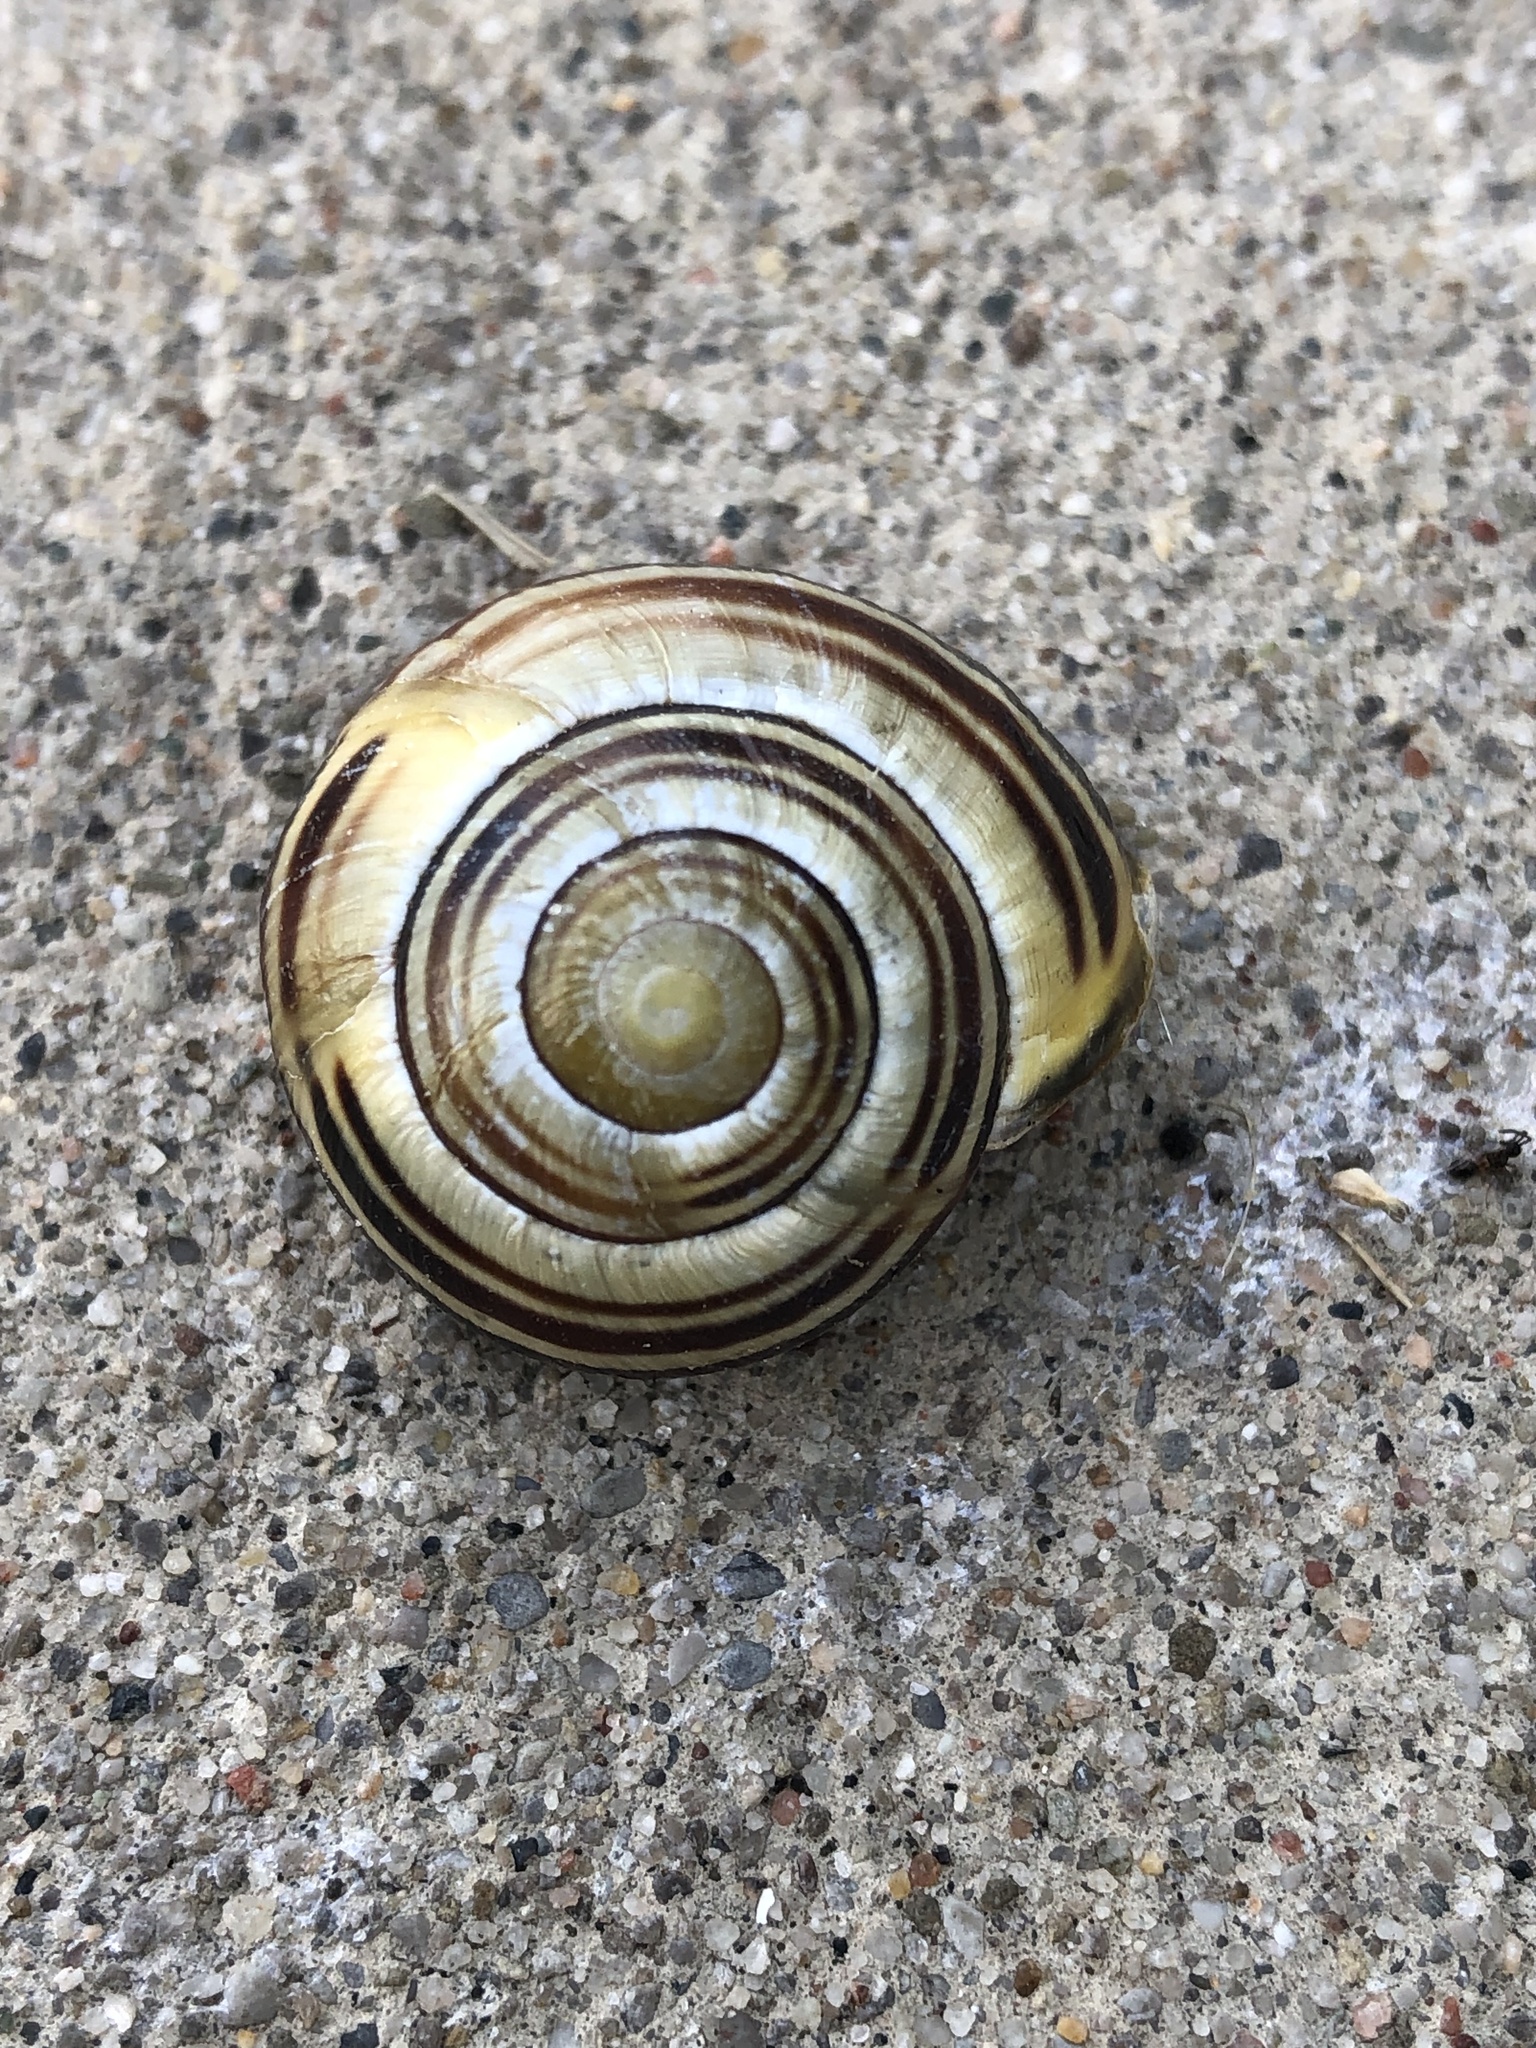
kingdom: Animalia
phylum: Mollusca
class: Gastropoda
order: Stylommatophora
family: Helicidae
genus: Cepaea
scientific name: Cepaea nemoralis
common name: Grovesnail
